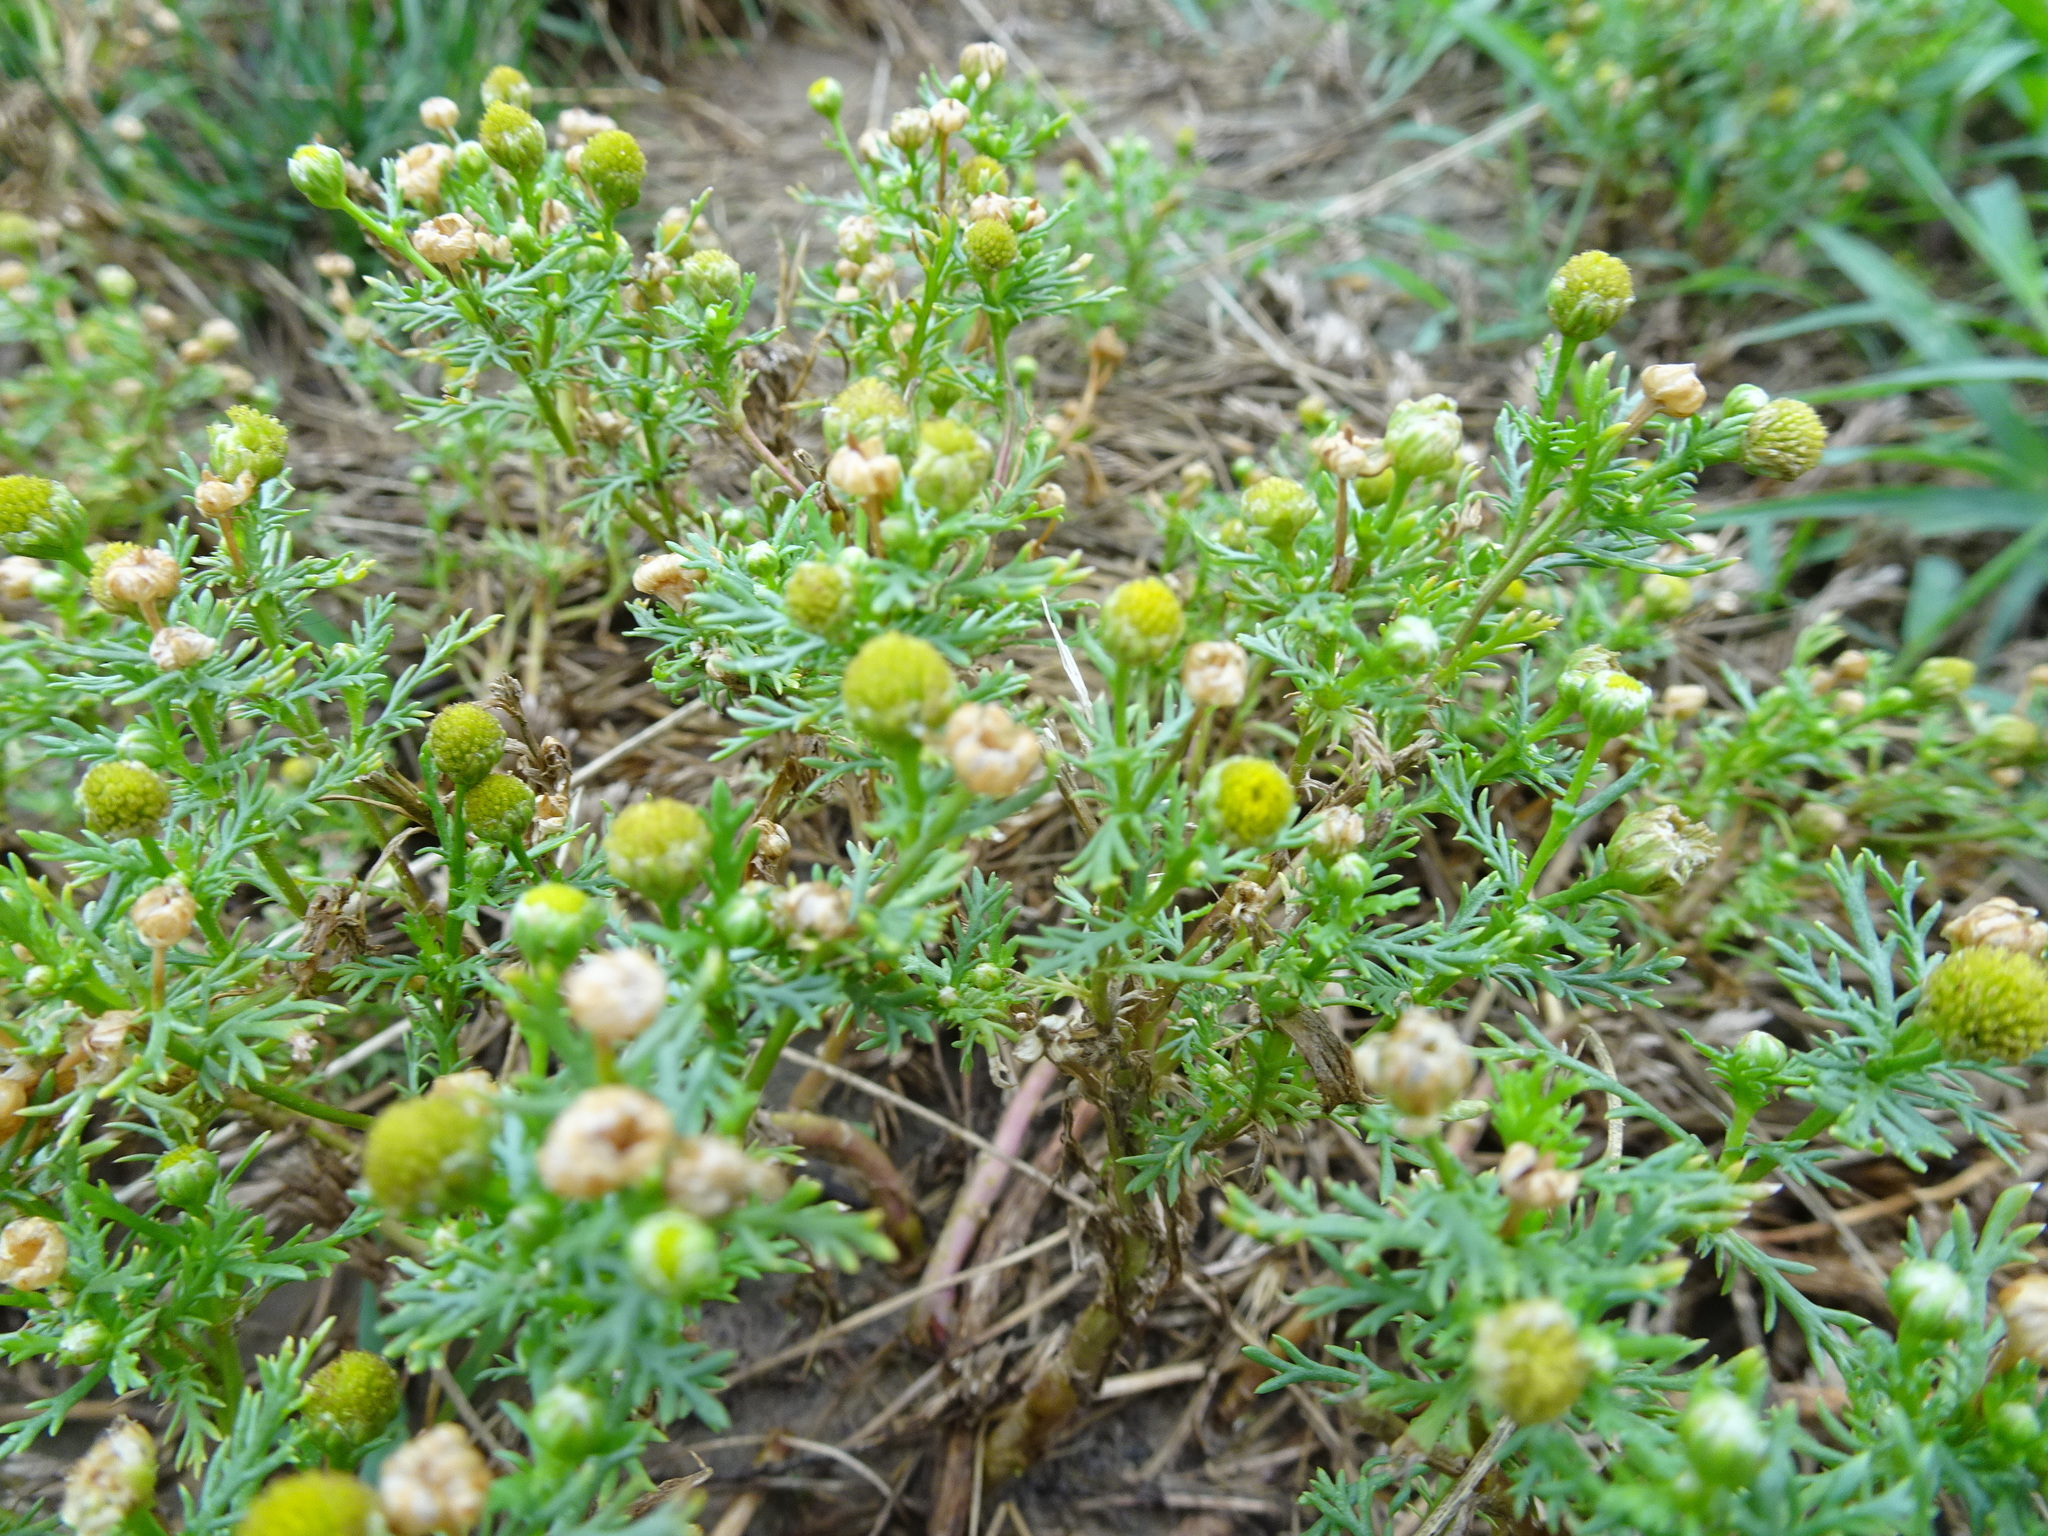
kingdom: Plantae
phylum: Tracheophyta
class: Magnoliopsida
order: Asterales
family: Asteraceae
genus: Matricaria
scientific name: Matricaria discoidea
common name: Disc mayweed
